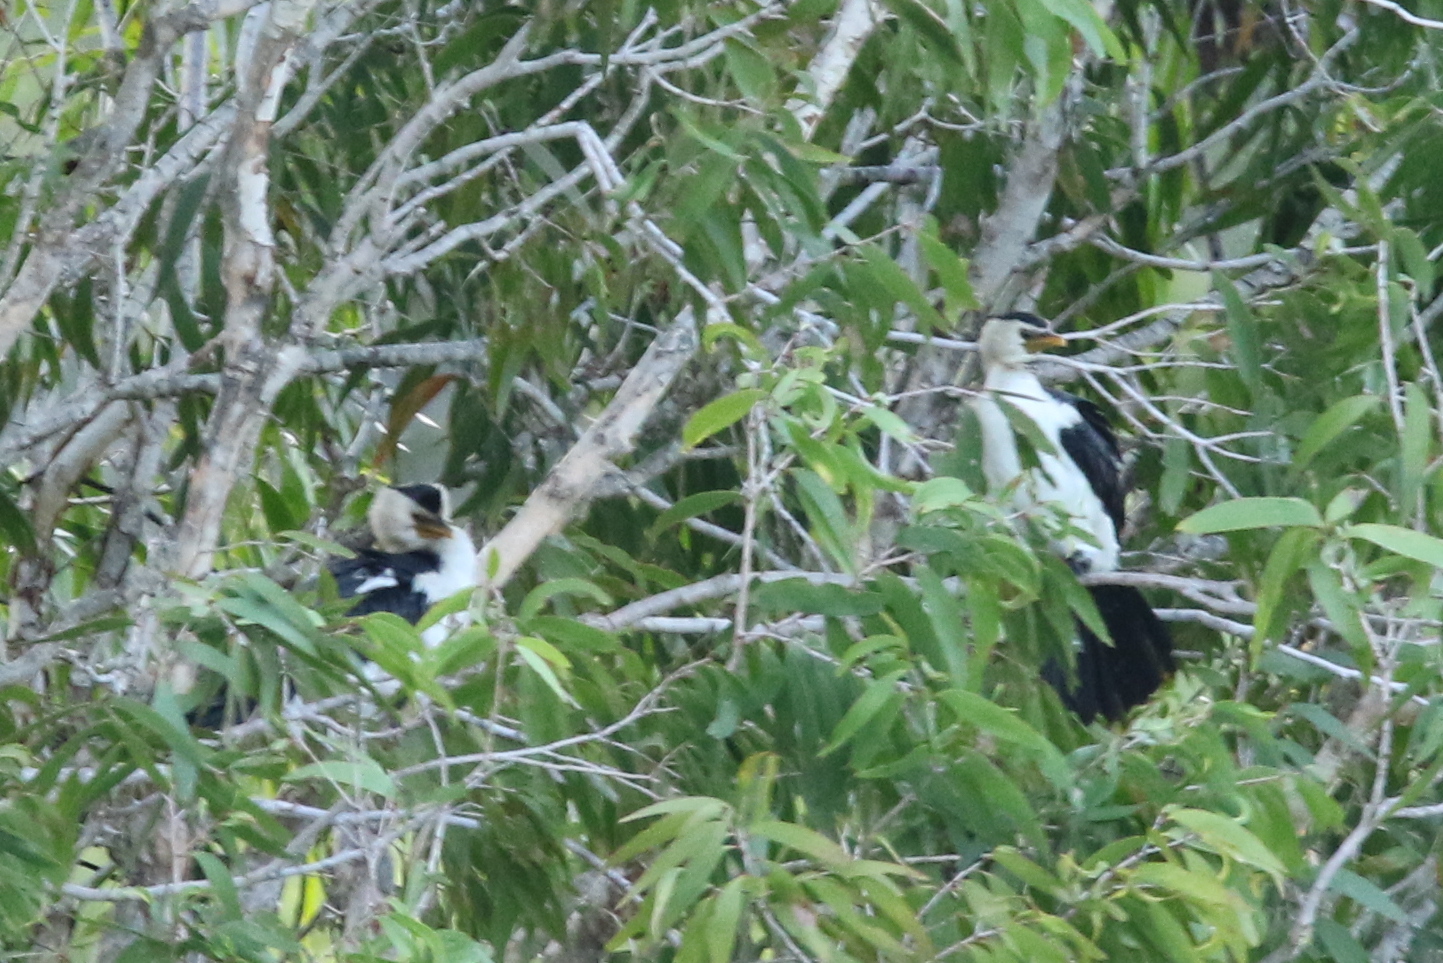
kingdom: Animalia
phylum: Chordata
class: Aves
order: Suliformes
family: Phalacrocoracidae
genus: Microcarbo
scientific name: Microcarbo melanoleucos
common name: Little pied cormorant
